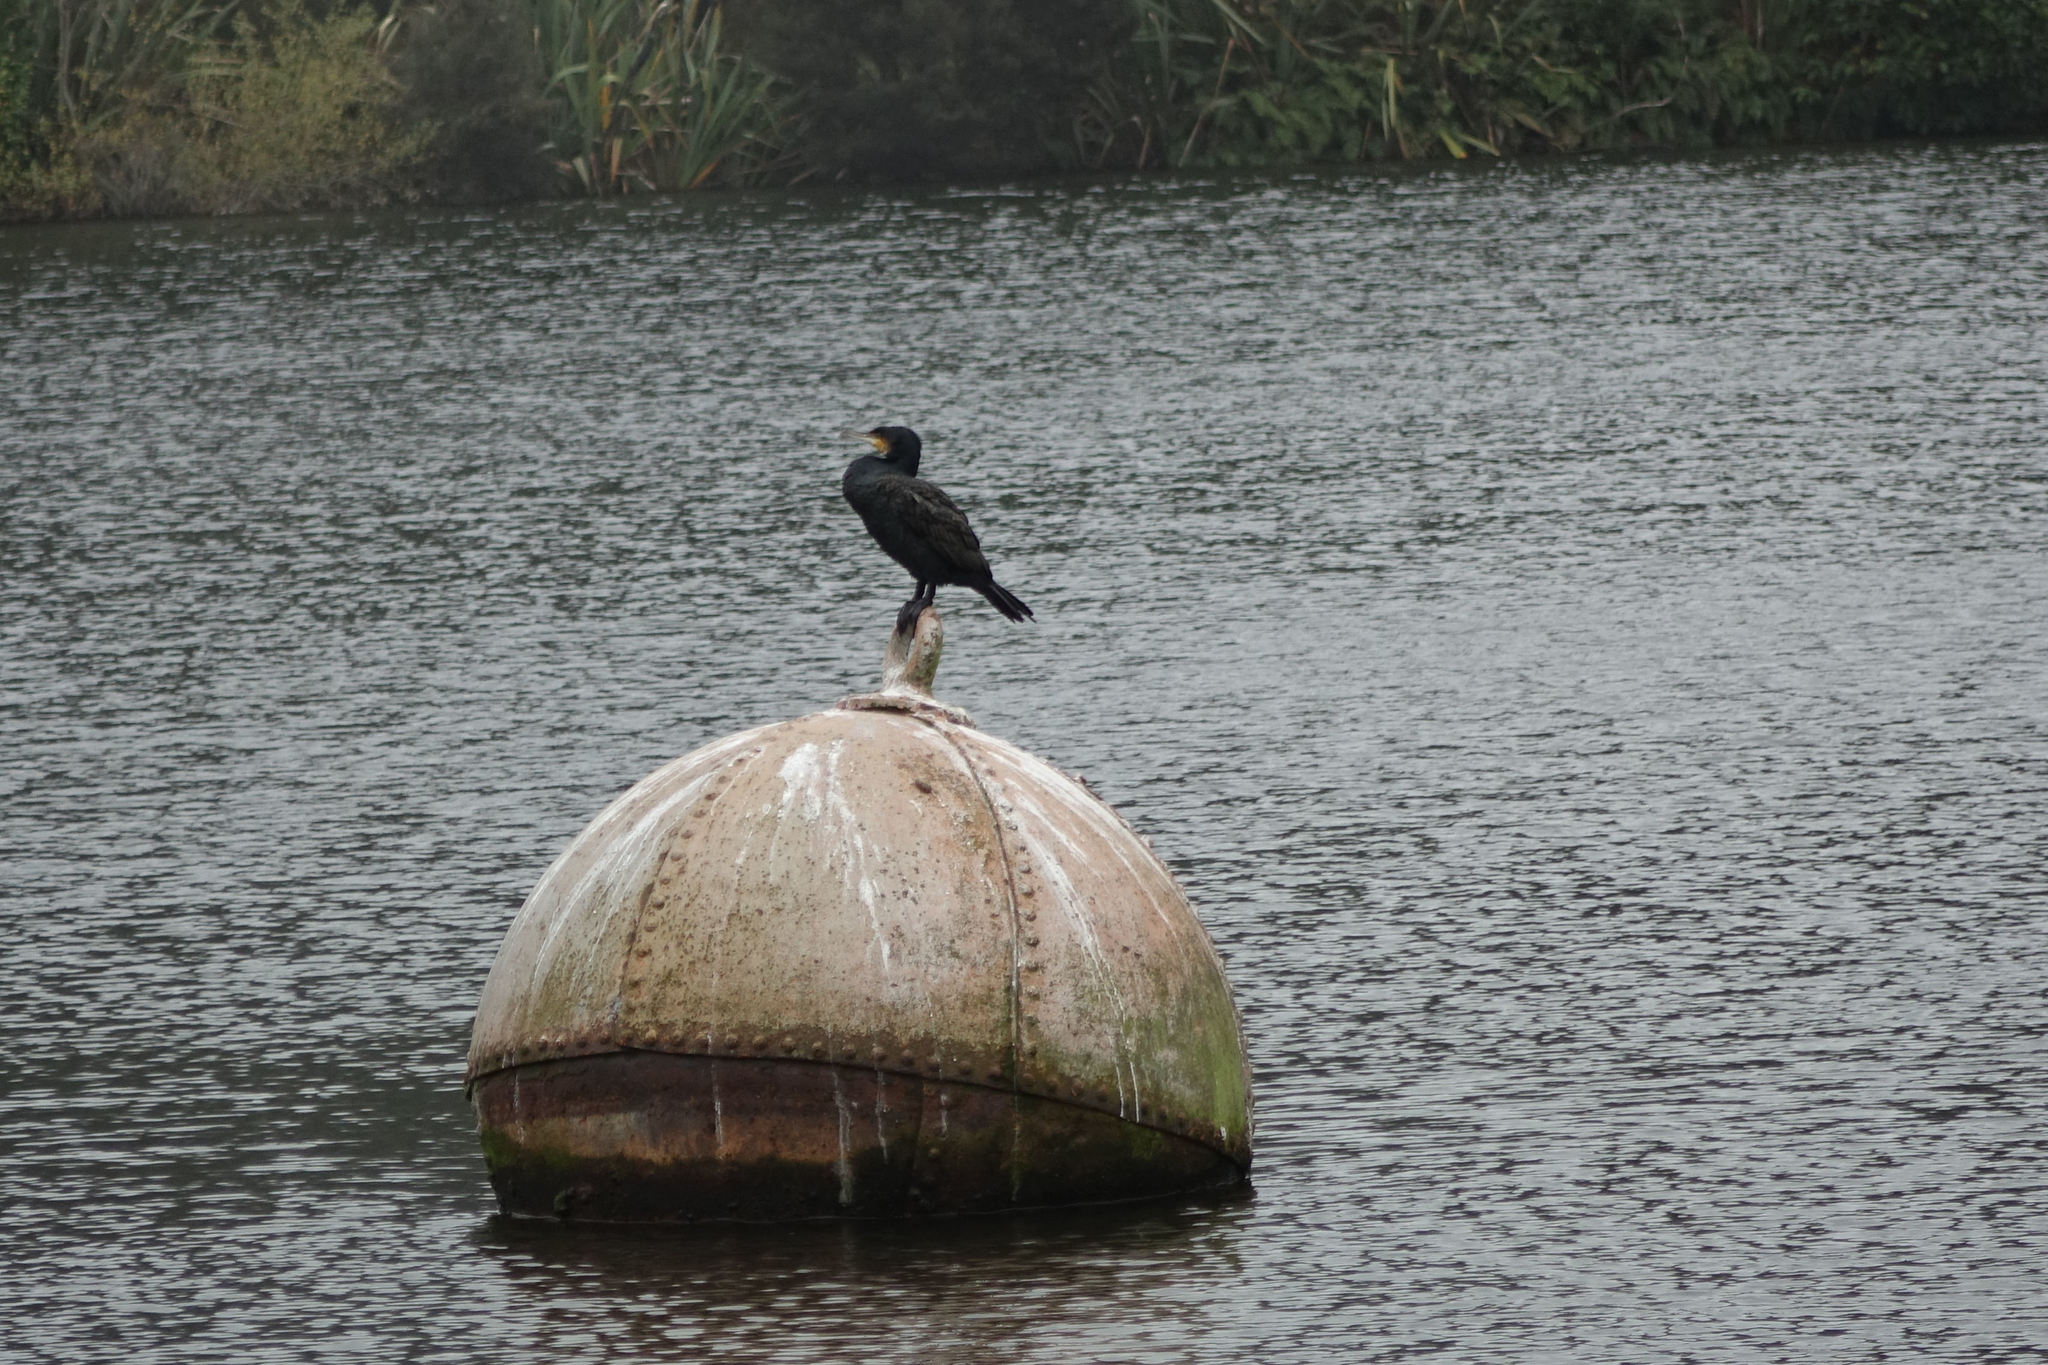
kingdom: Animalia
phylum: Chordata
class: Aves
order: Suliformes
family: Phalacrocoracidae
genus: Phalacrocorax
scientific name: Phalacrocorax carbo
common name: Great cormorant
